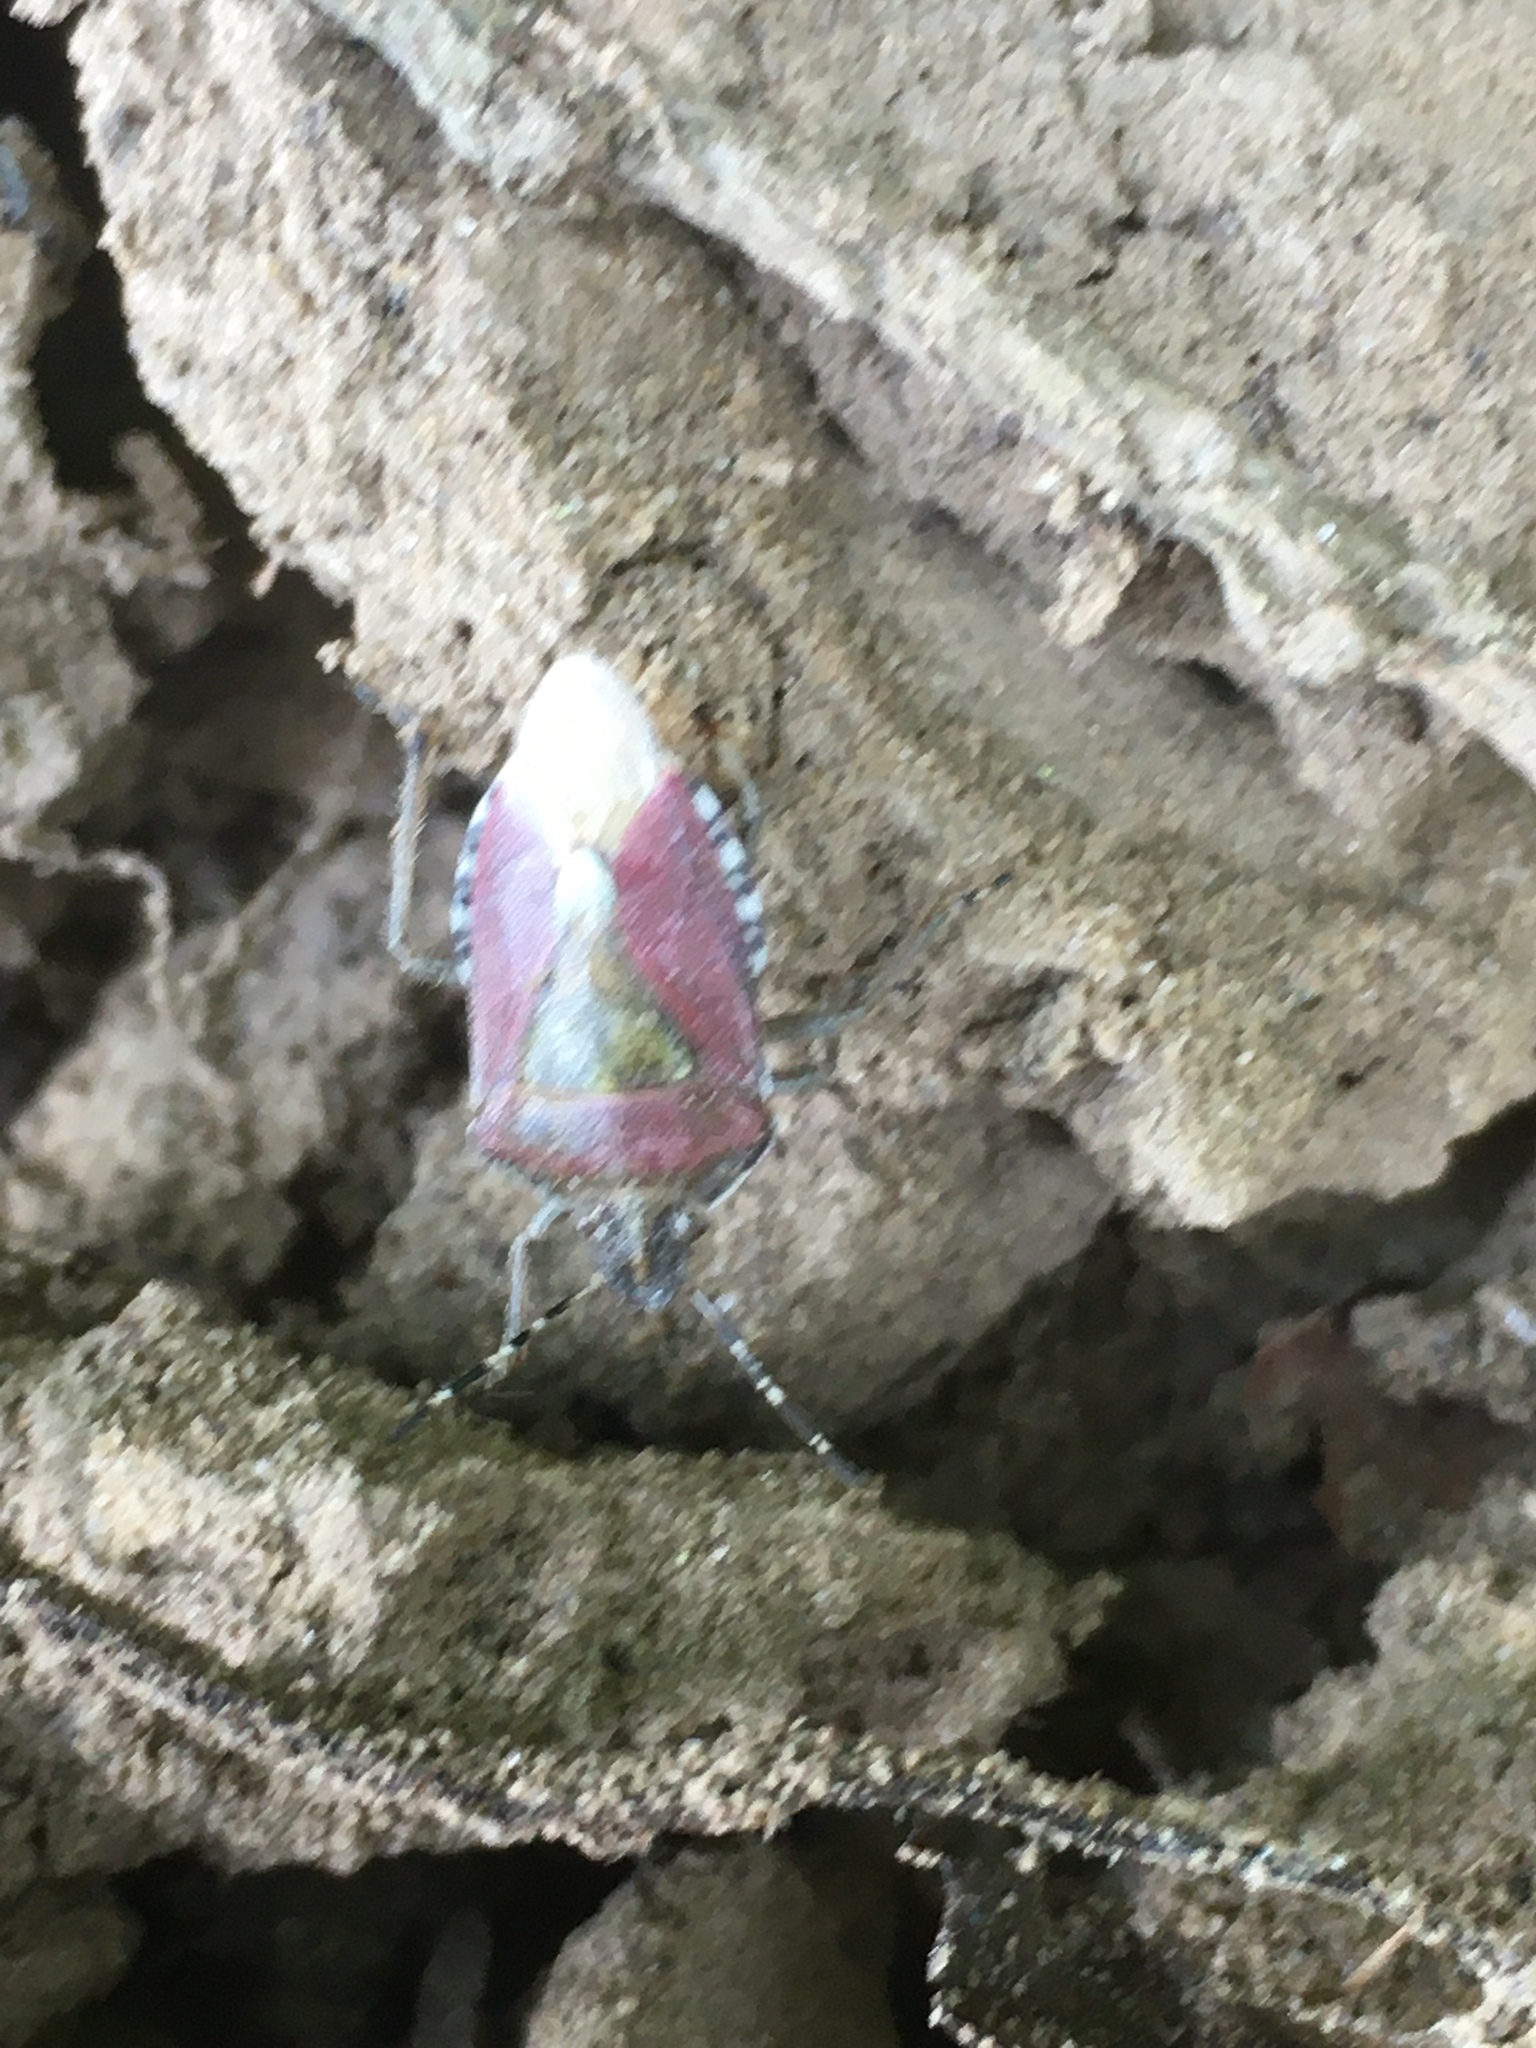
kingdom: Animalia
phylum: Arthropoda
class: Insecta
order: Hemiptera
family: Pentatomidae
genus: Dolycoris
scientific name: Dolycoris baccarum
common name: Sloe bug
